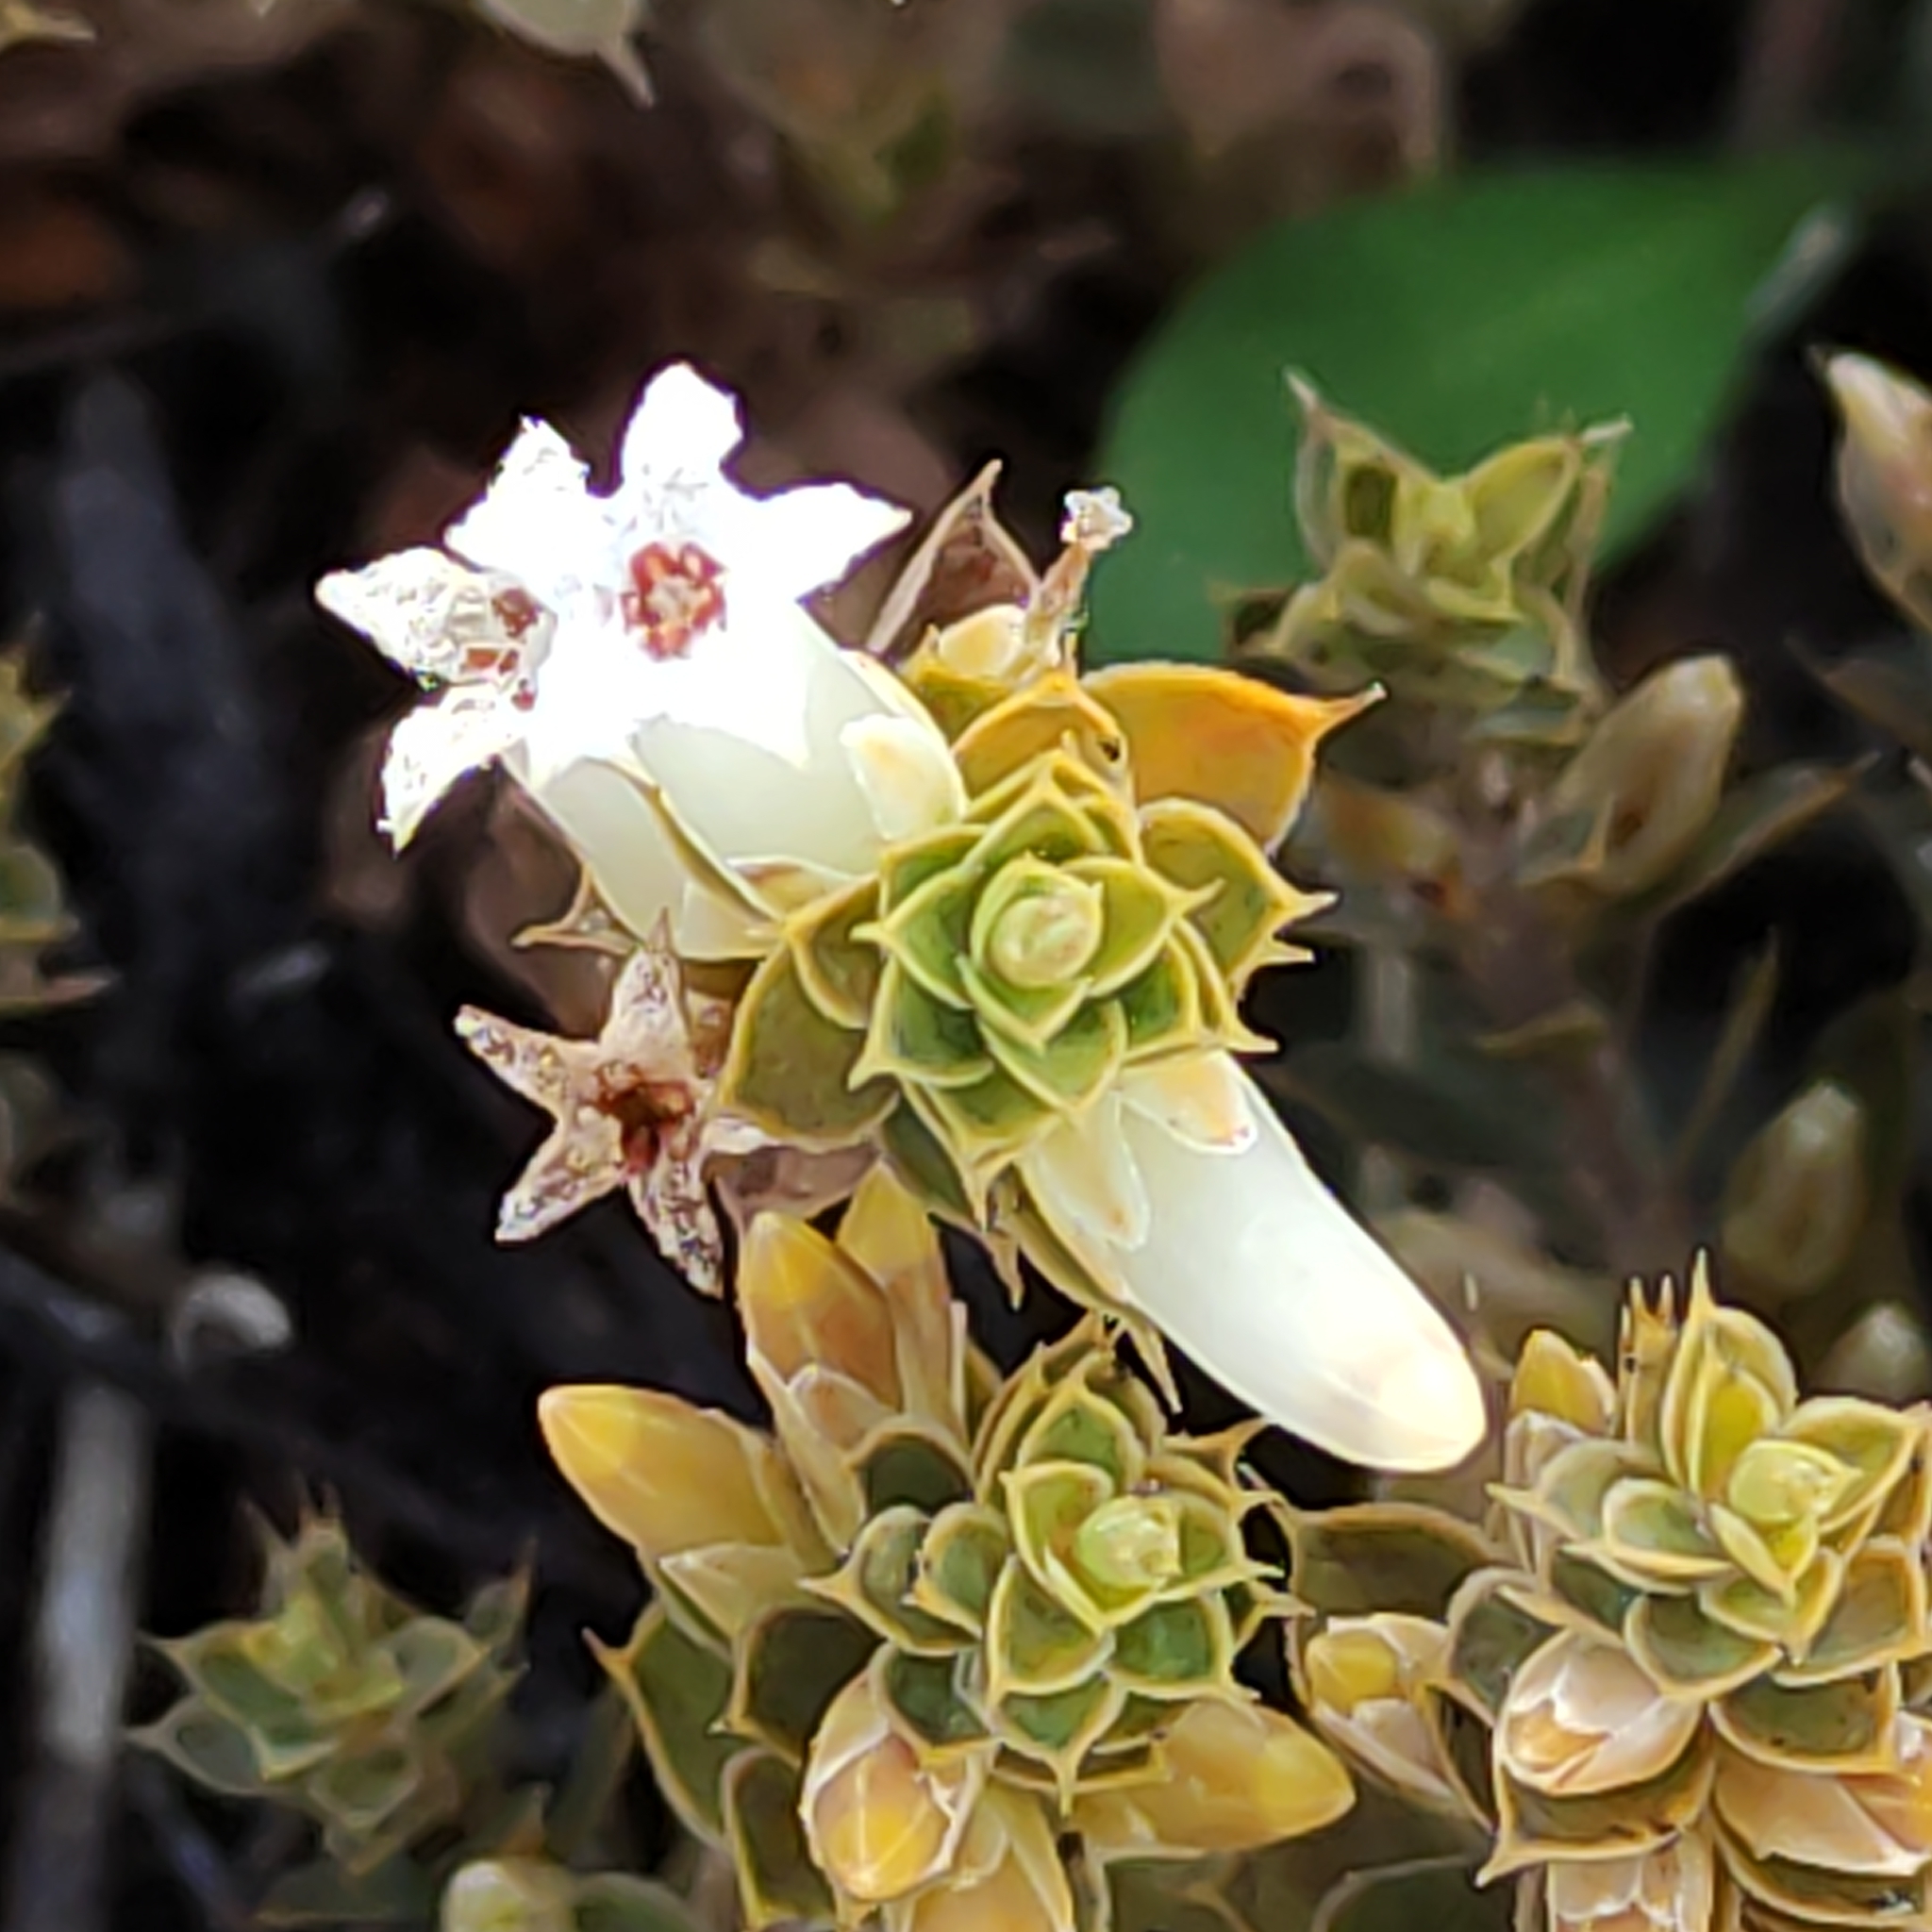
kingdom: Plantae
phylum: Tracheophyta
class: Magnoliopsida
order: Ericales
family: Ericaceae
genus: Styphelia
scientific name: Styphelia nesophila
